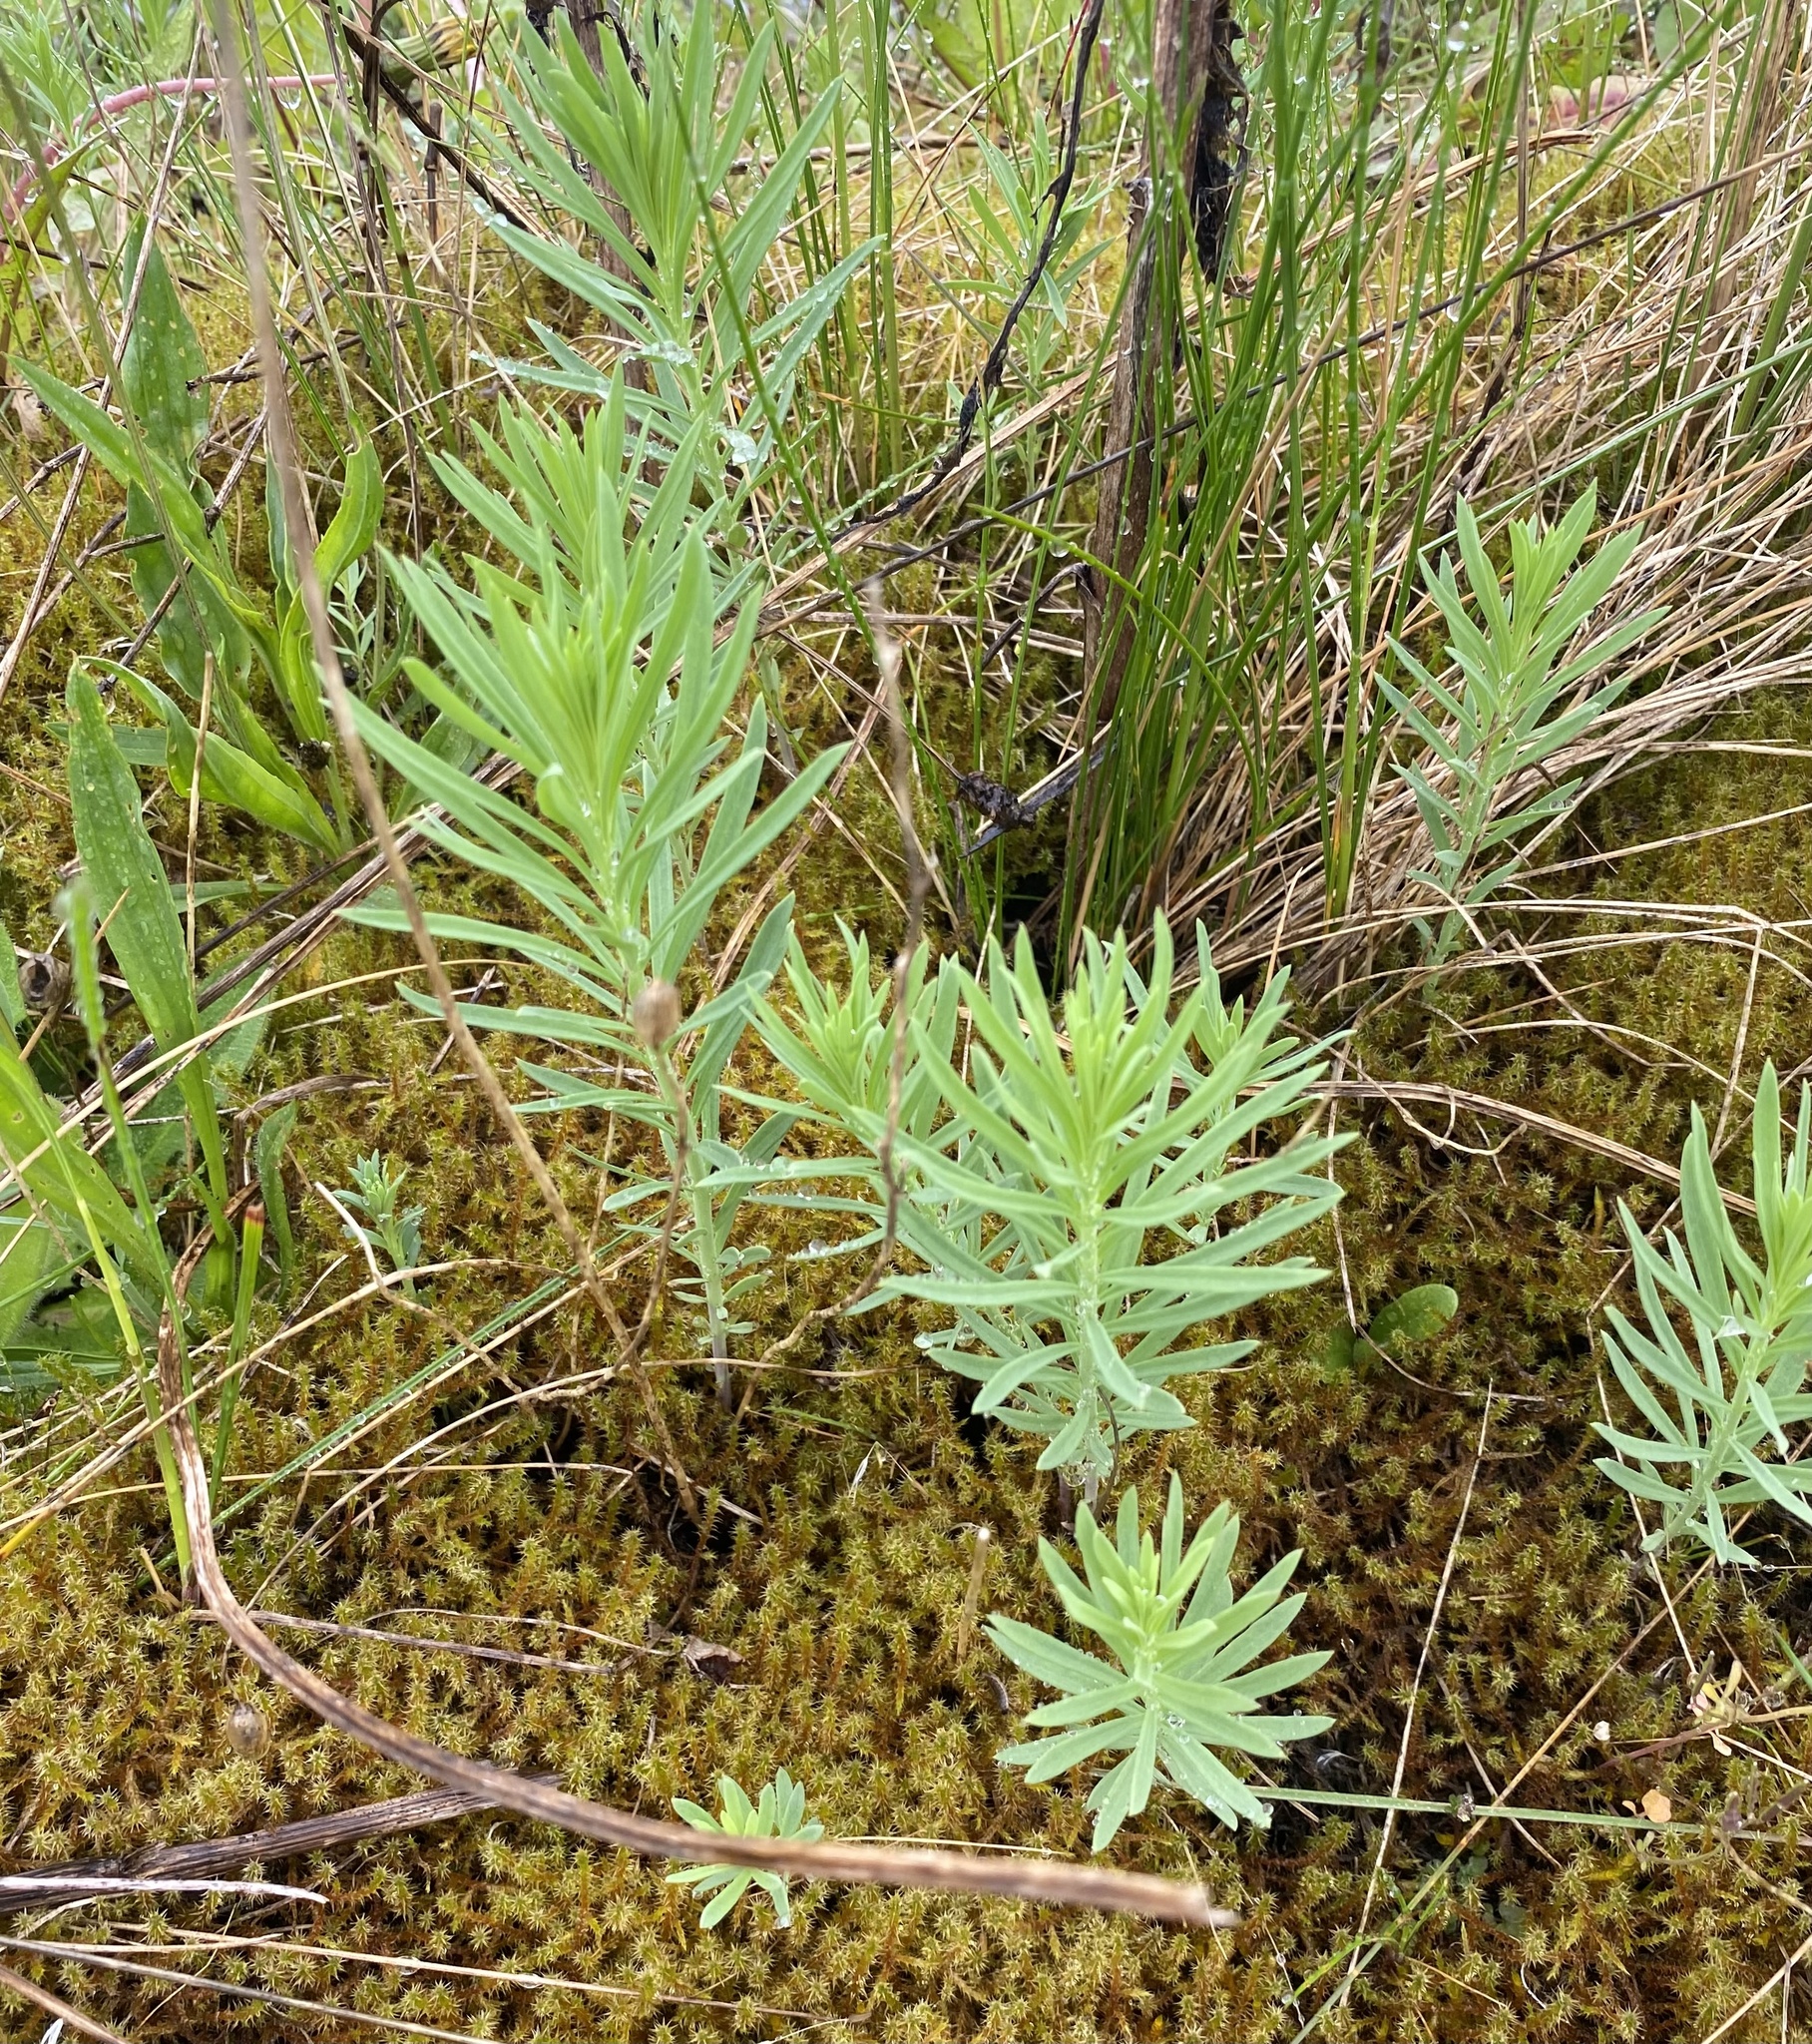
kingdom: Plantae
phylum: Tracheophyta
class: Magnoliopsida
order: Lamiales
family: Plantaginaceae
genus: Linaria
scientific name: Linaria vulgaris
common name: Butter and eggs
